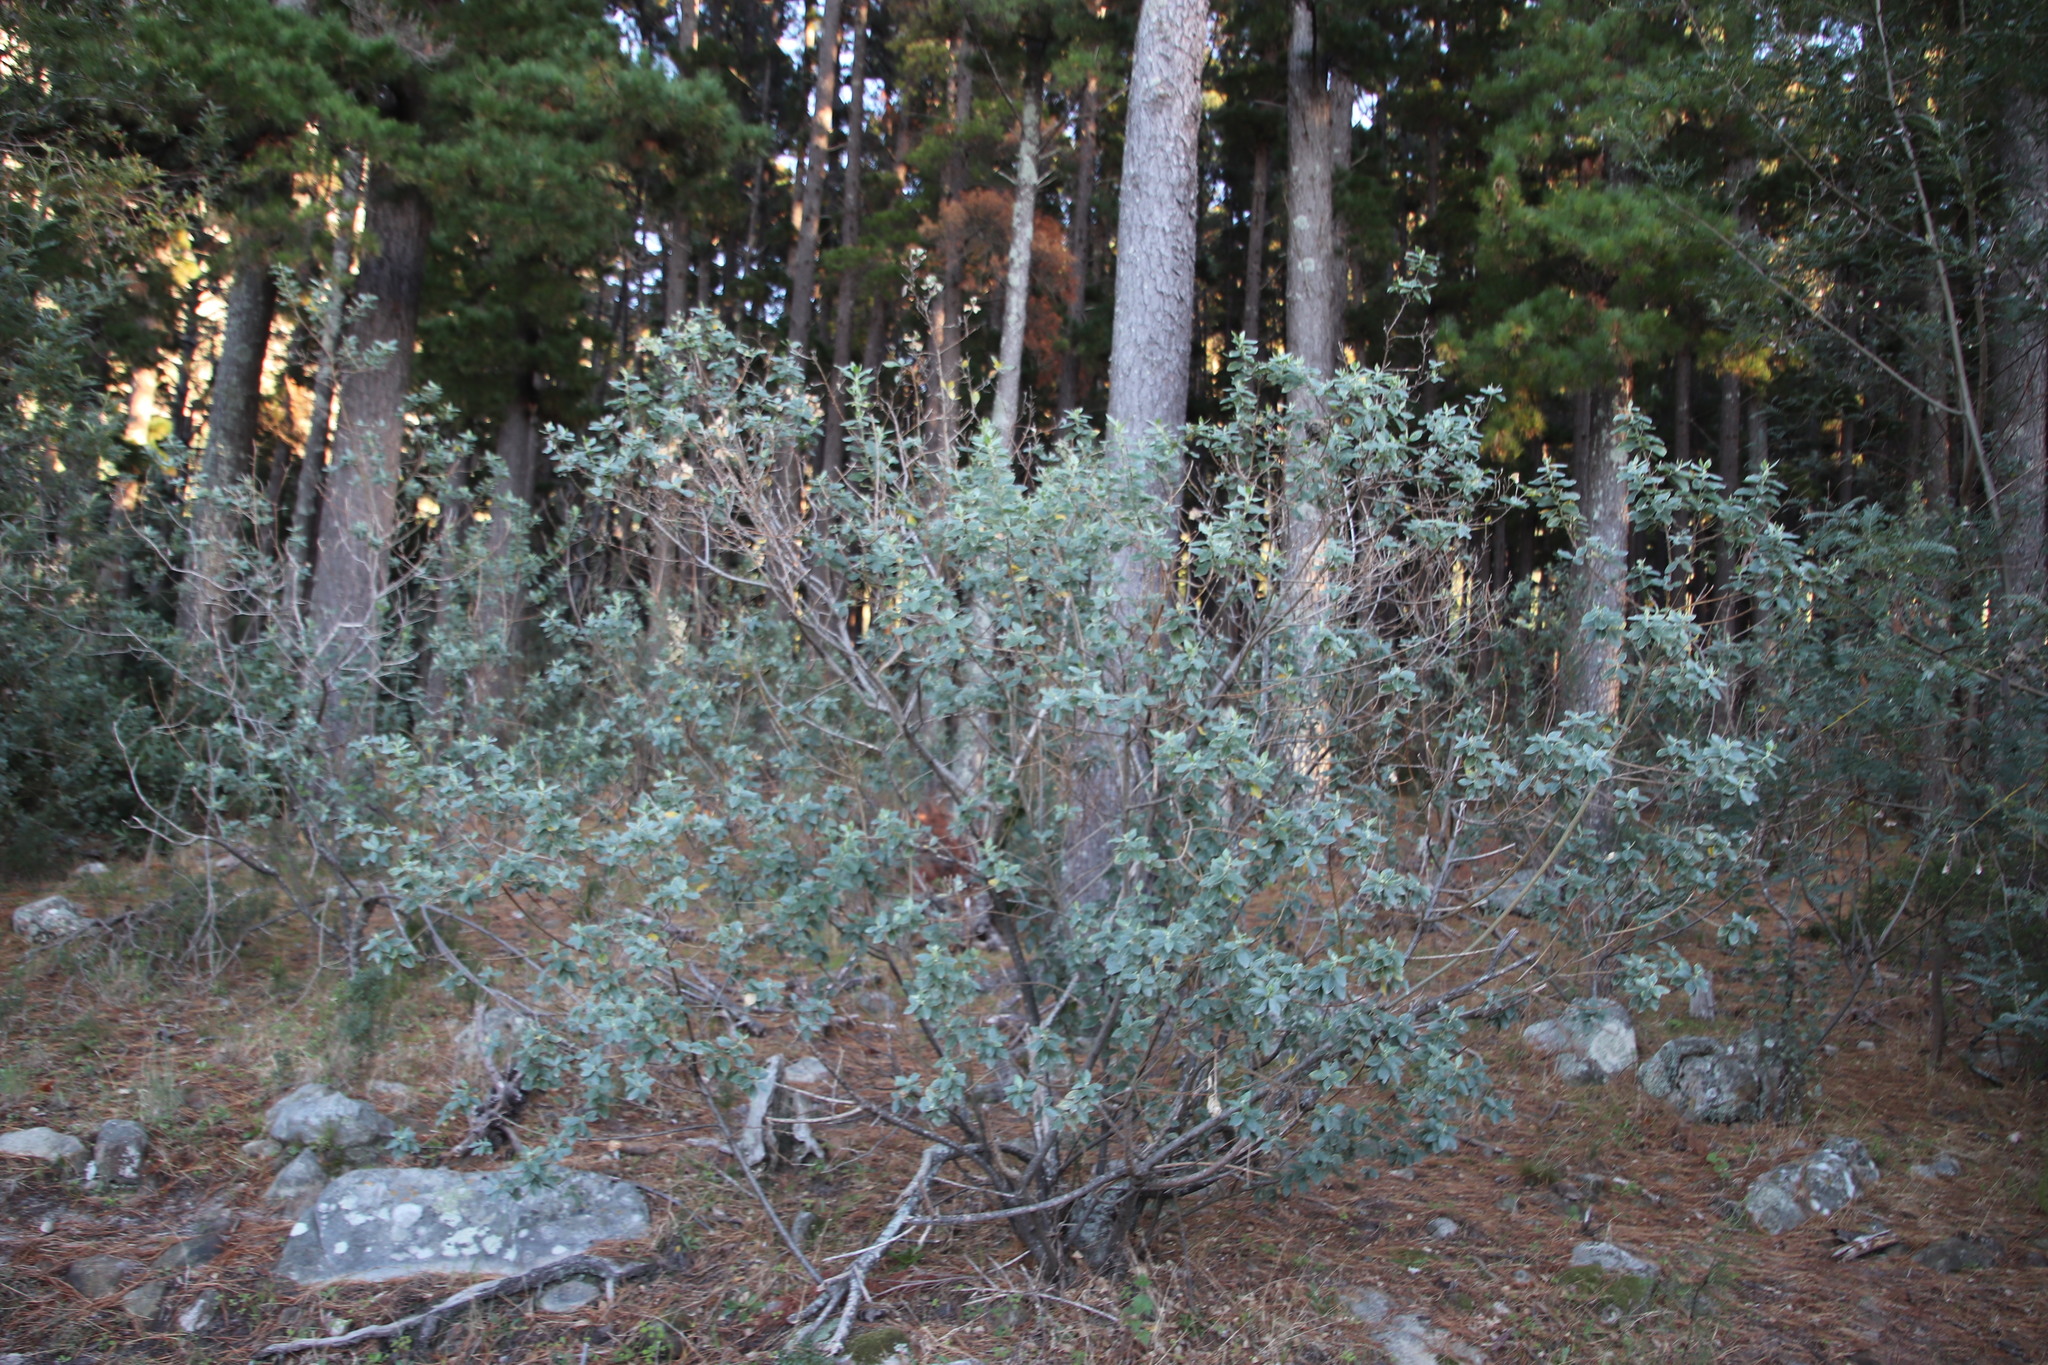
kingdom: Plantae
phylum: Tracheophyta
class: Magnoliopsida
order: Fabales
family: Fabaceae
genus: Podalyria
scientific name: Podalyria calyptrata
